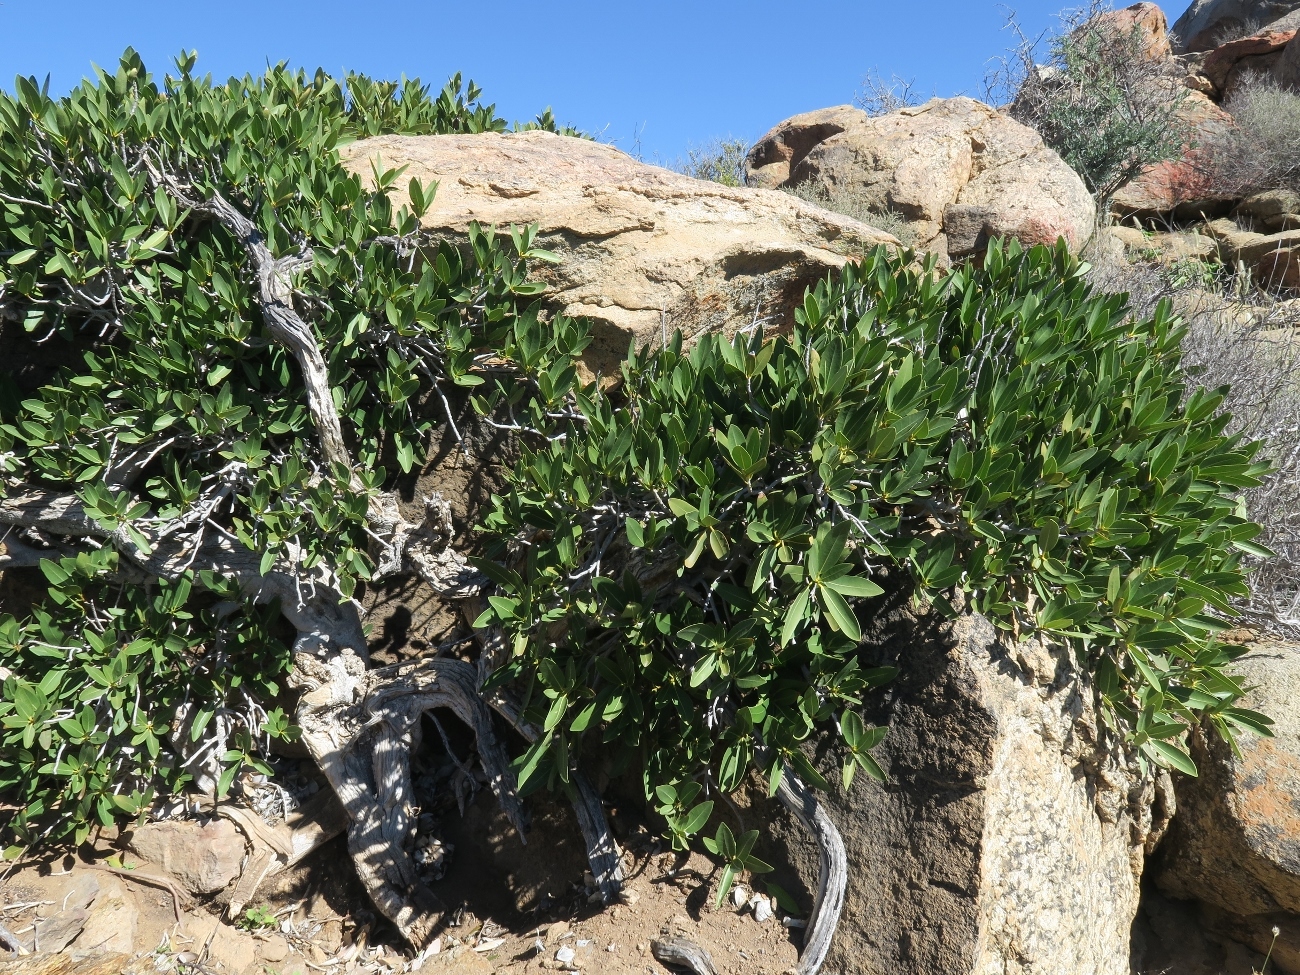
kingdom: Plantae
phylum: Tracheophyta
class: Magnoliopsida
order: Rosales
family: Moraceae
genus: Ficus
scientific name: Ficus ilicina
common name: Laurel rock fig
